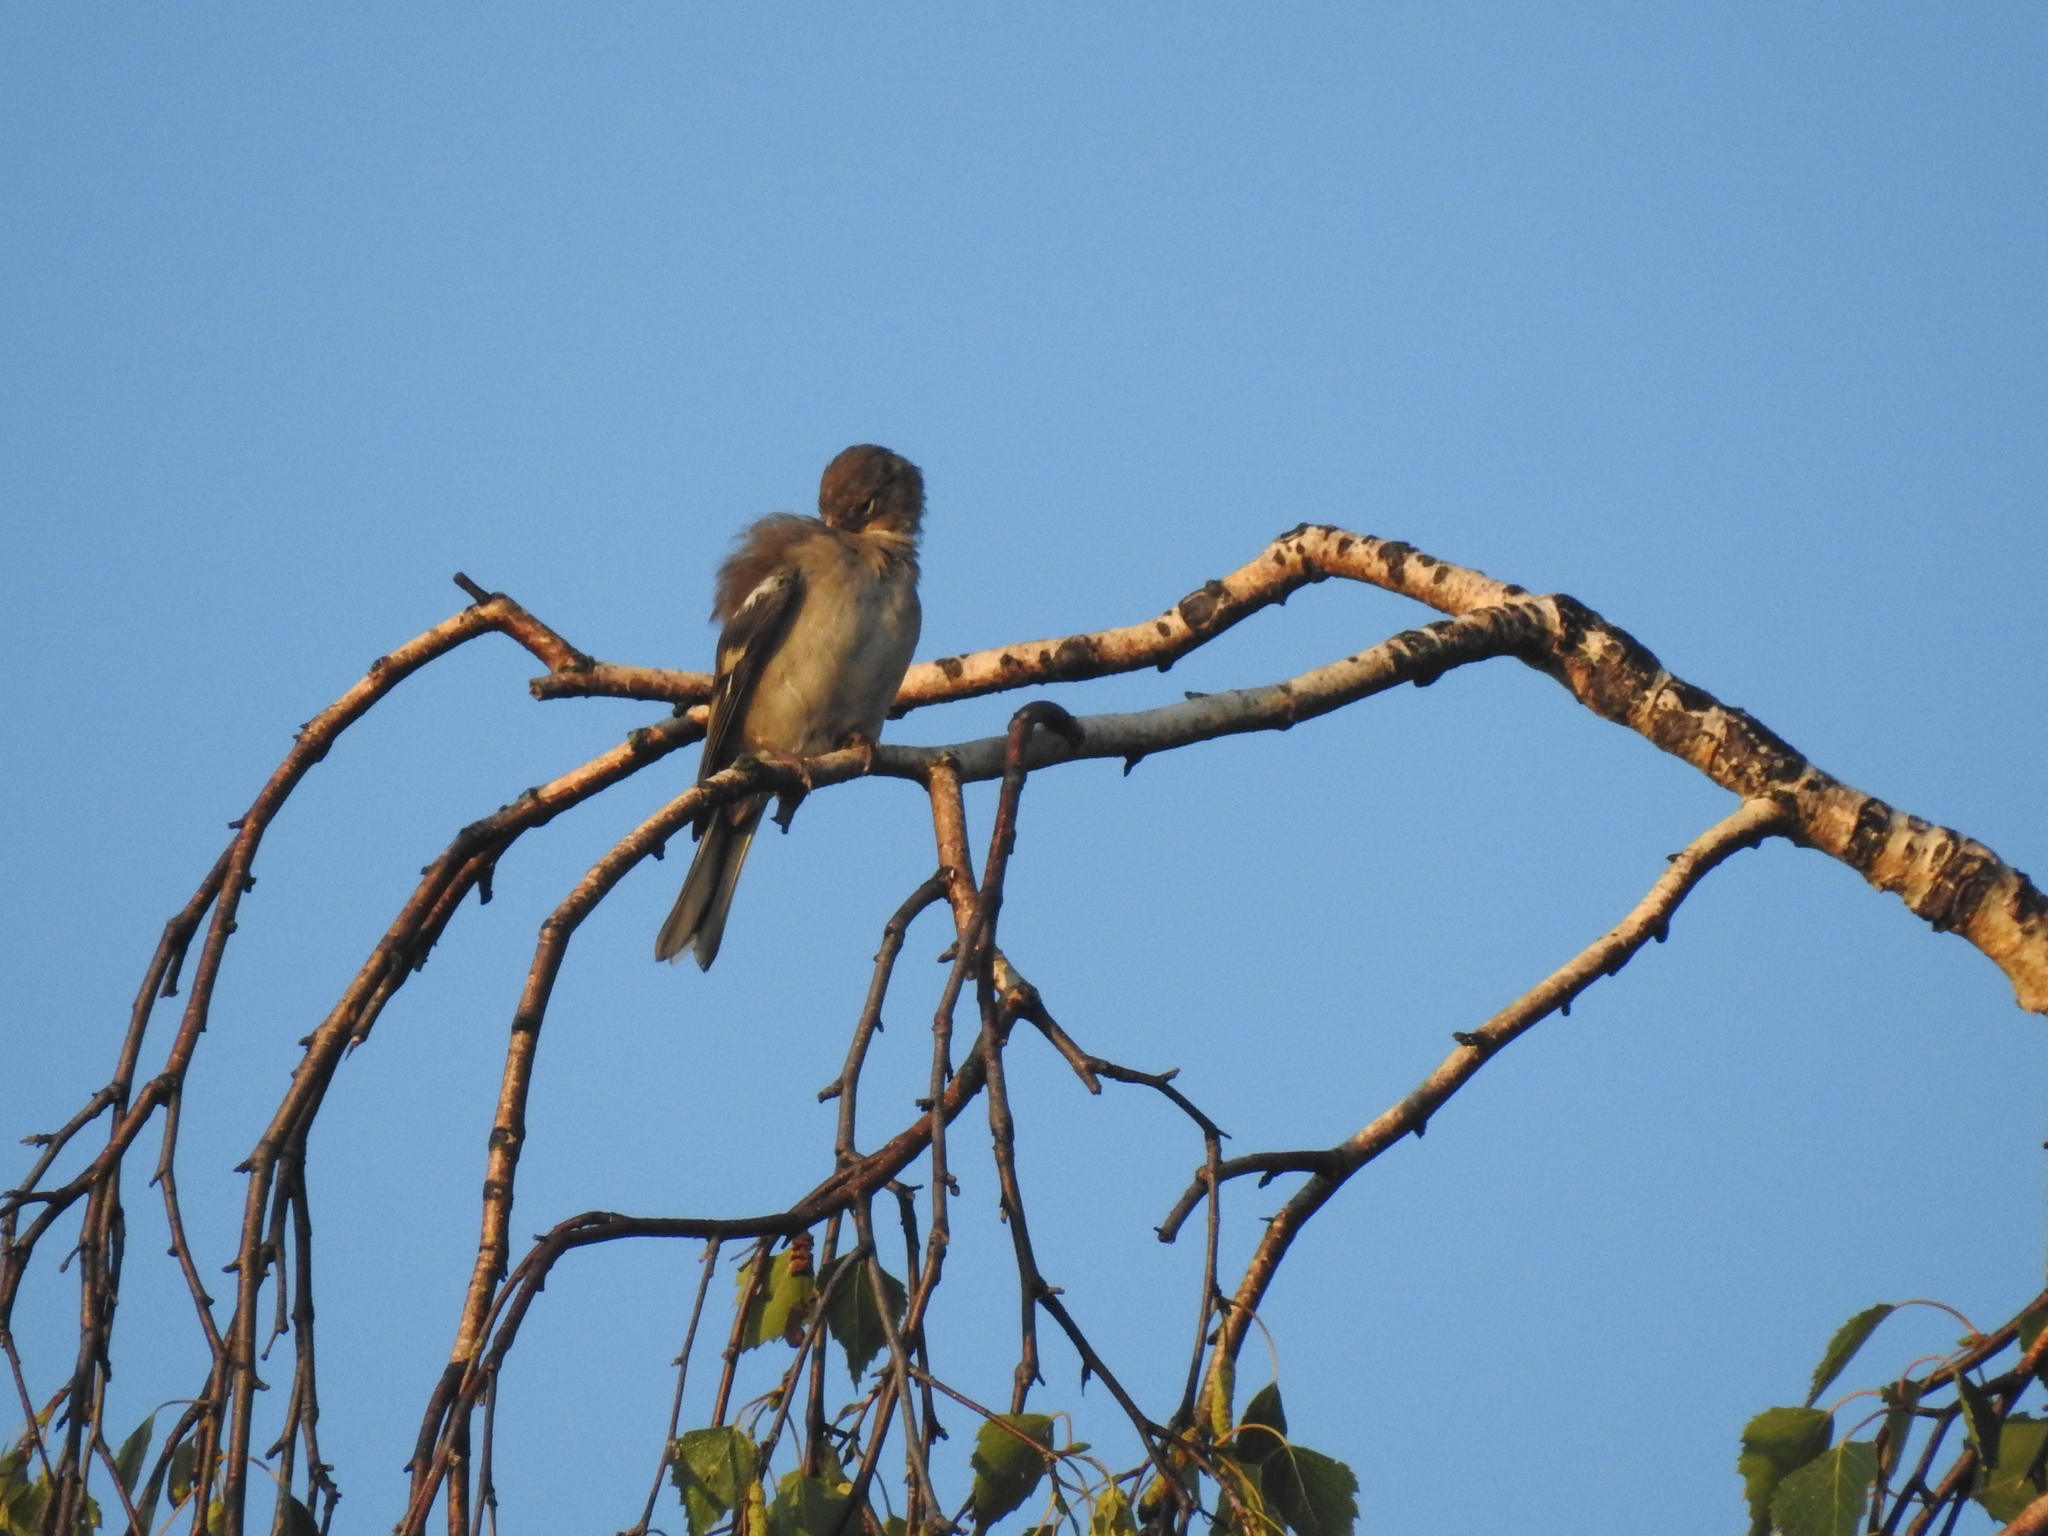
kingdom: Animalia
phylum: Chordata
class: Aves
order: Passeriformes
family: Fringillidae
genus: Fringilla
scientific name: Fringilla coelebs
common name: Common chaffinch
